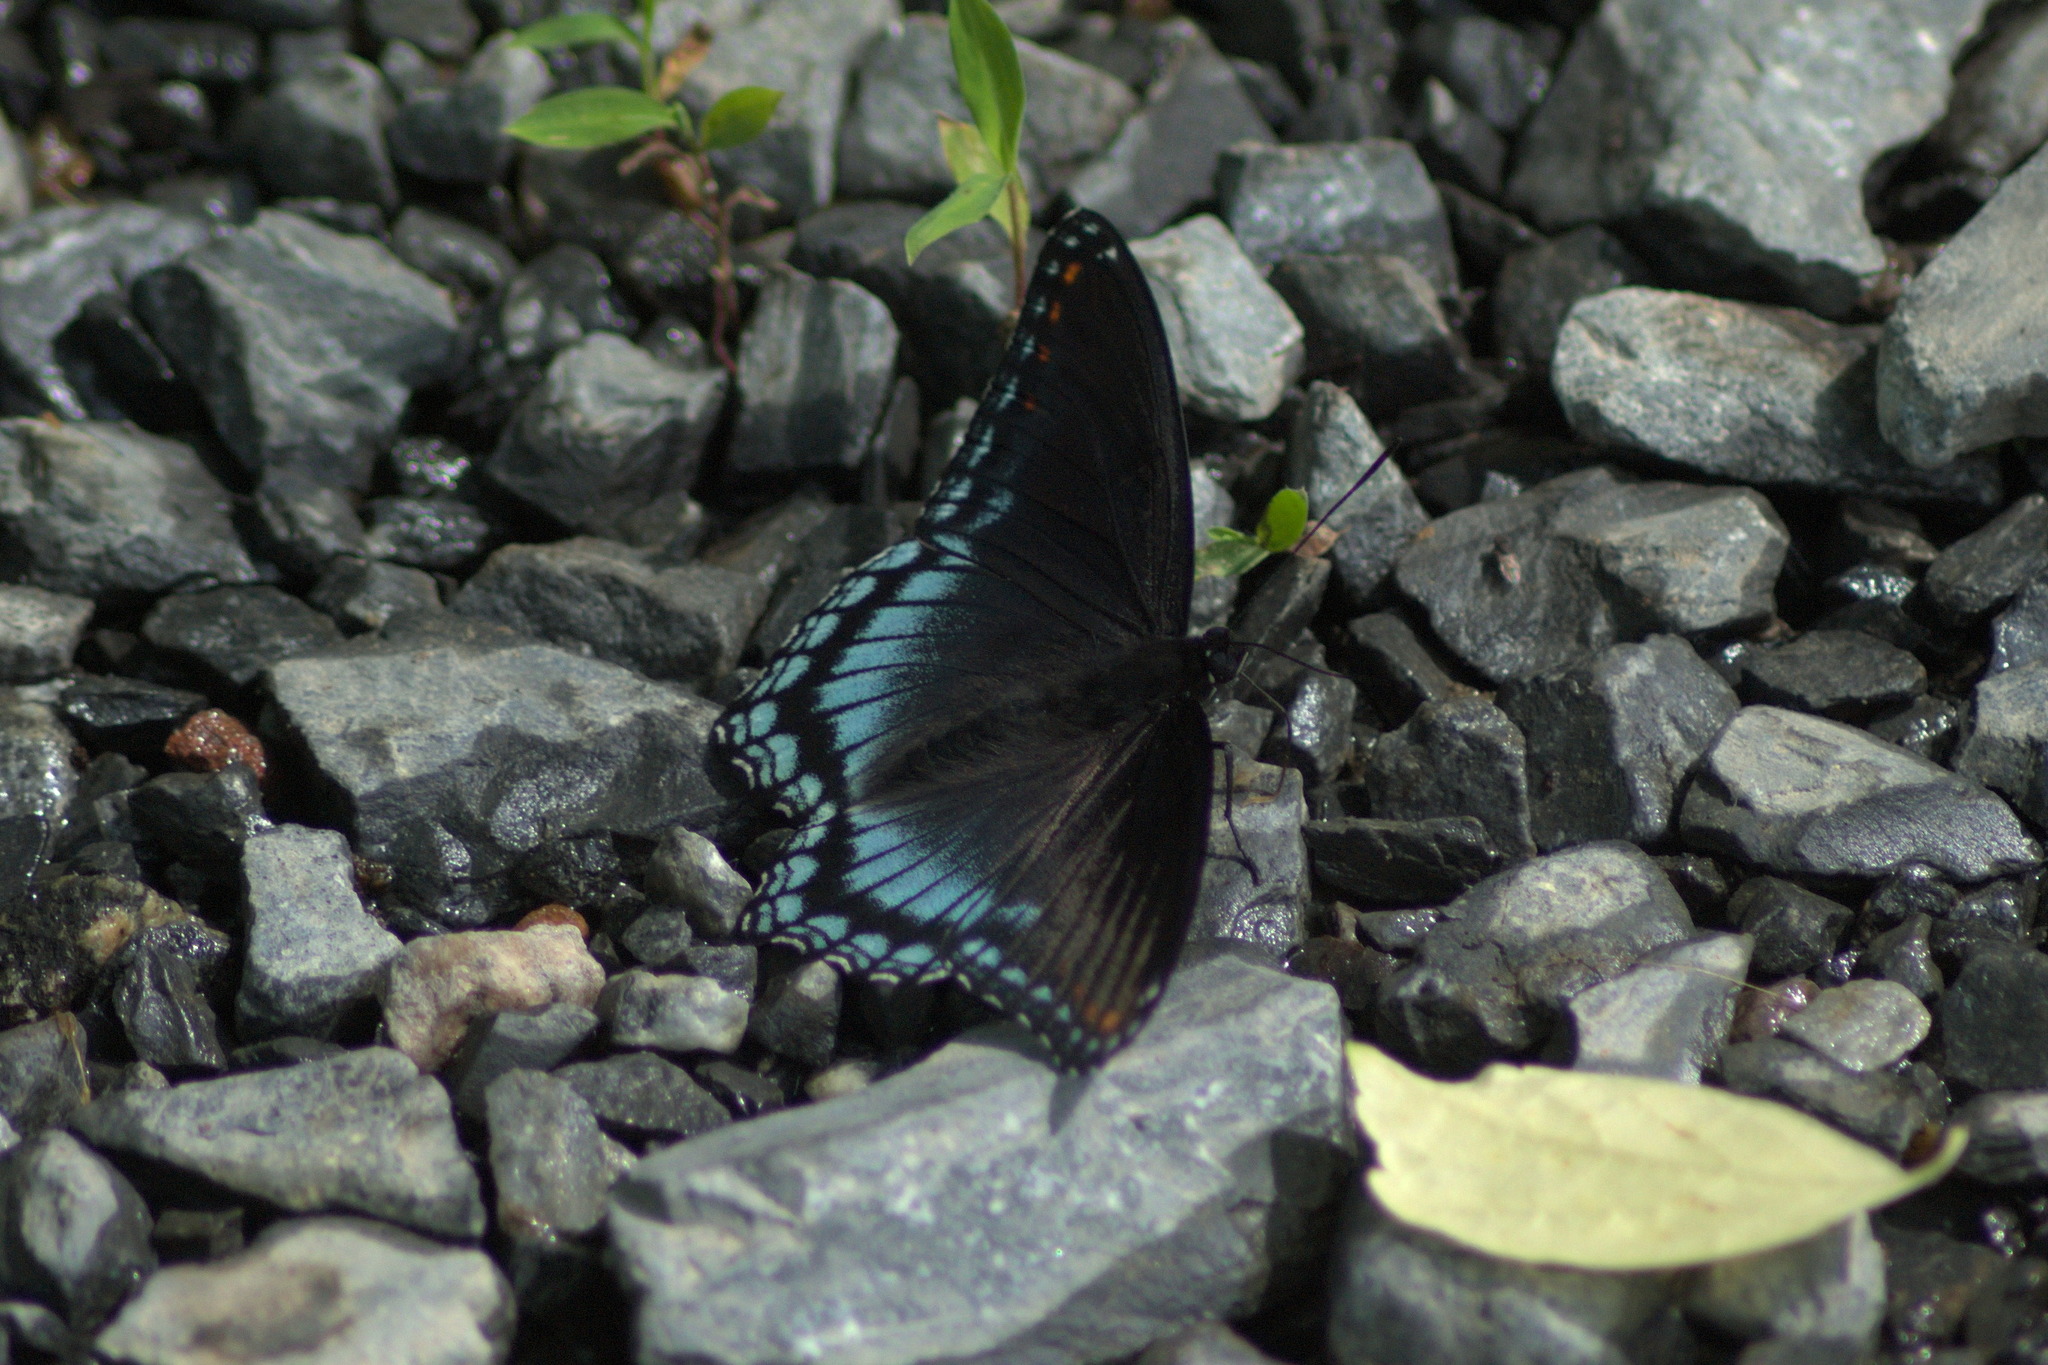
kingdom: Animalia
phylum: Arthropoda
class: Insecta
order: Lepidoptera
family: Nymphalidae
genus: Limenitis
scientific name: Limenitis astyanax
